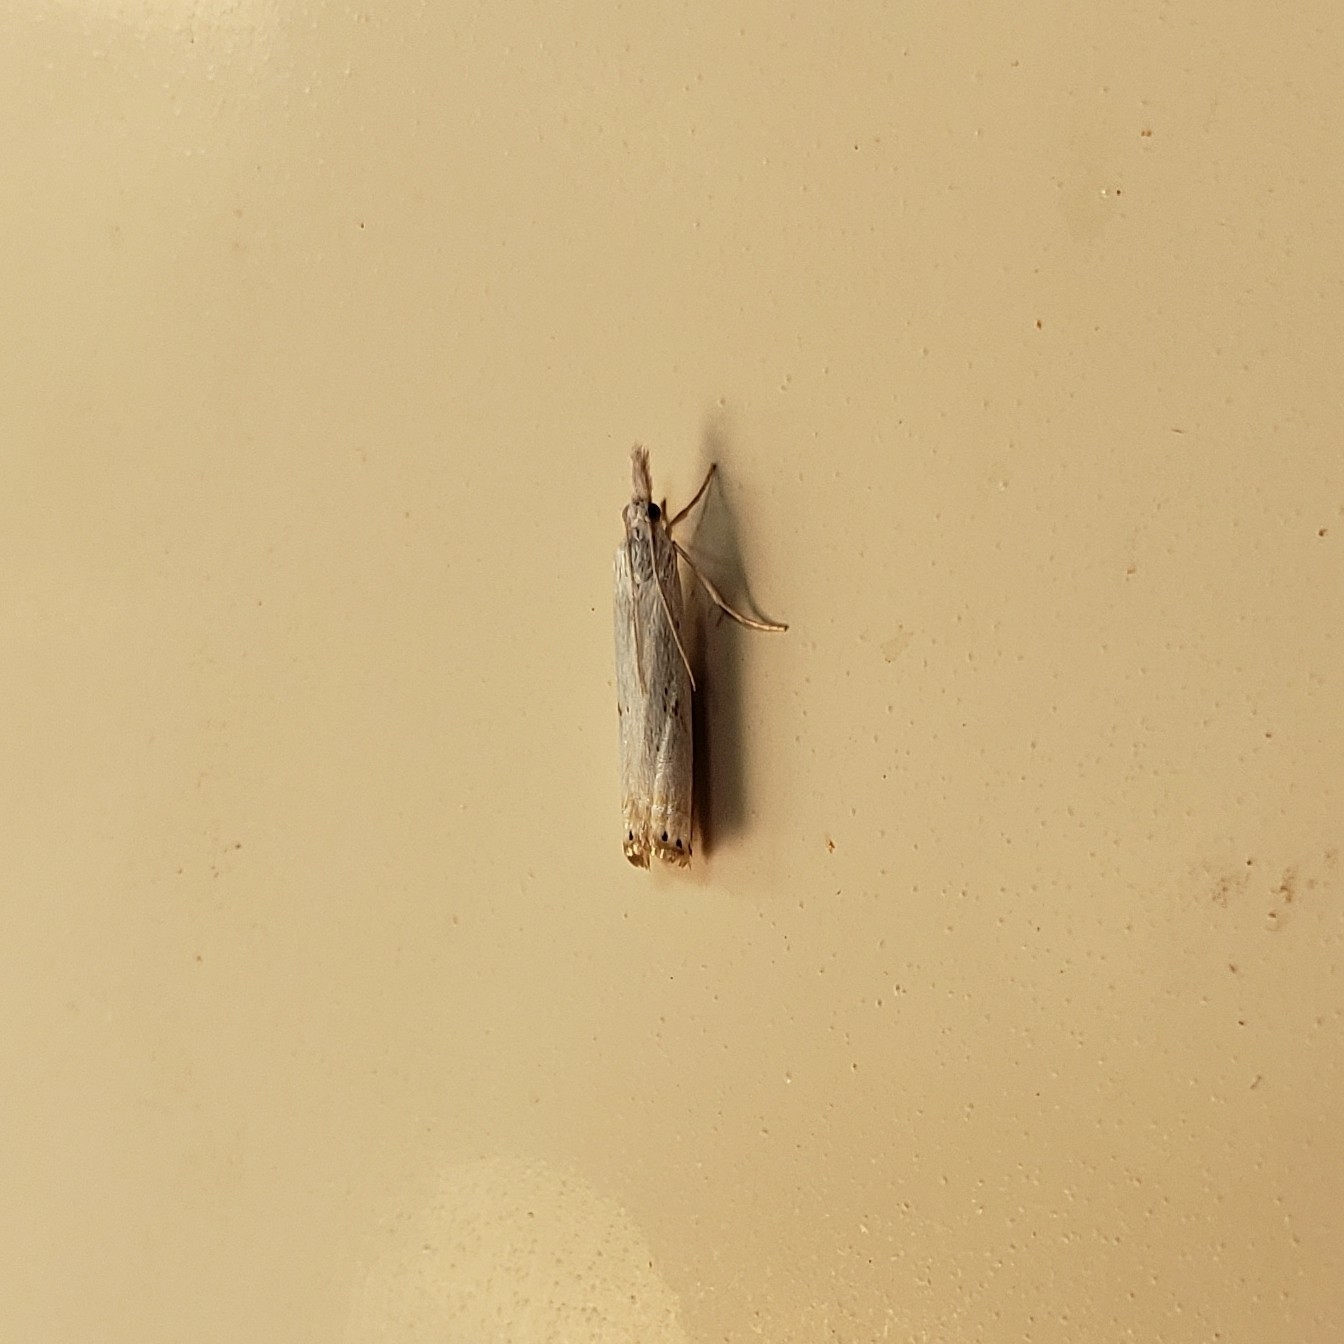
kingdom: Animalia
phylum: Arthropoda
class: Insecta
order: Lepidoptera
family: Crambidae
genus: Crambus
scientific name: Crambus albellus
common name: Small white grass-veneer
